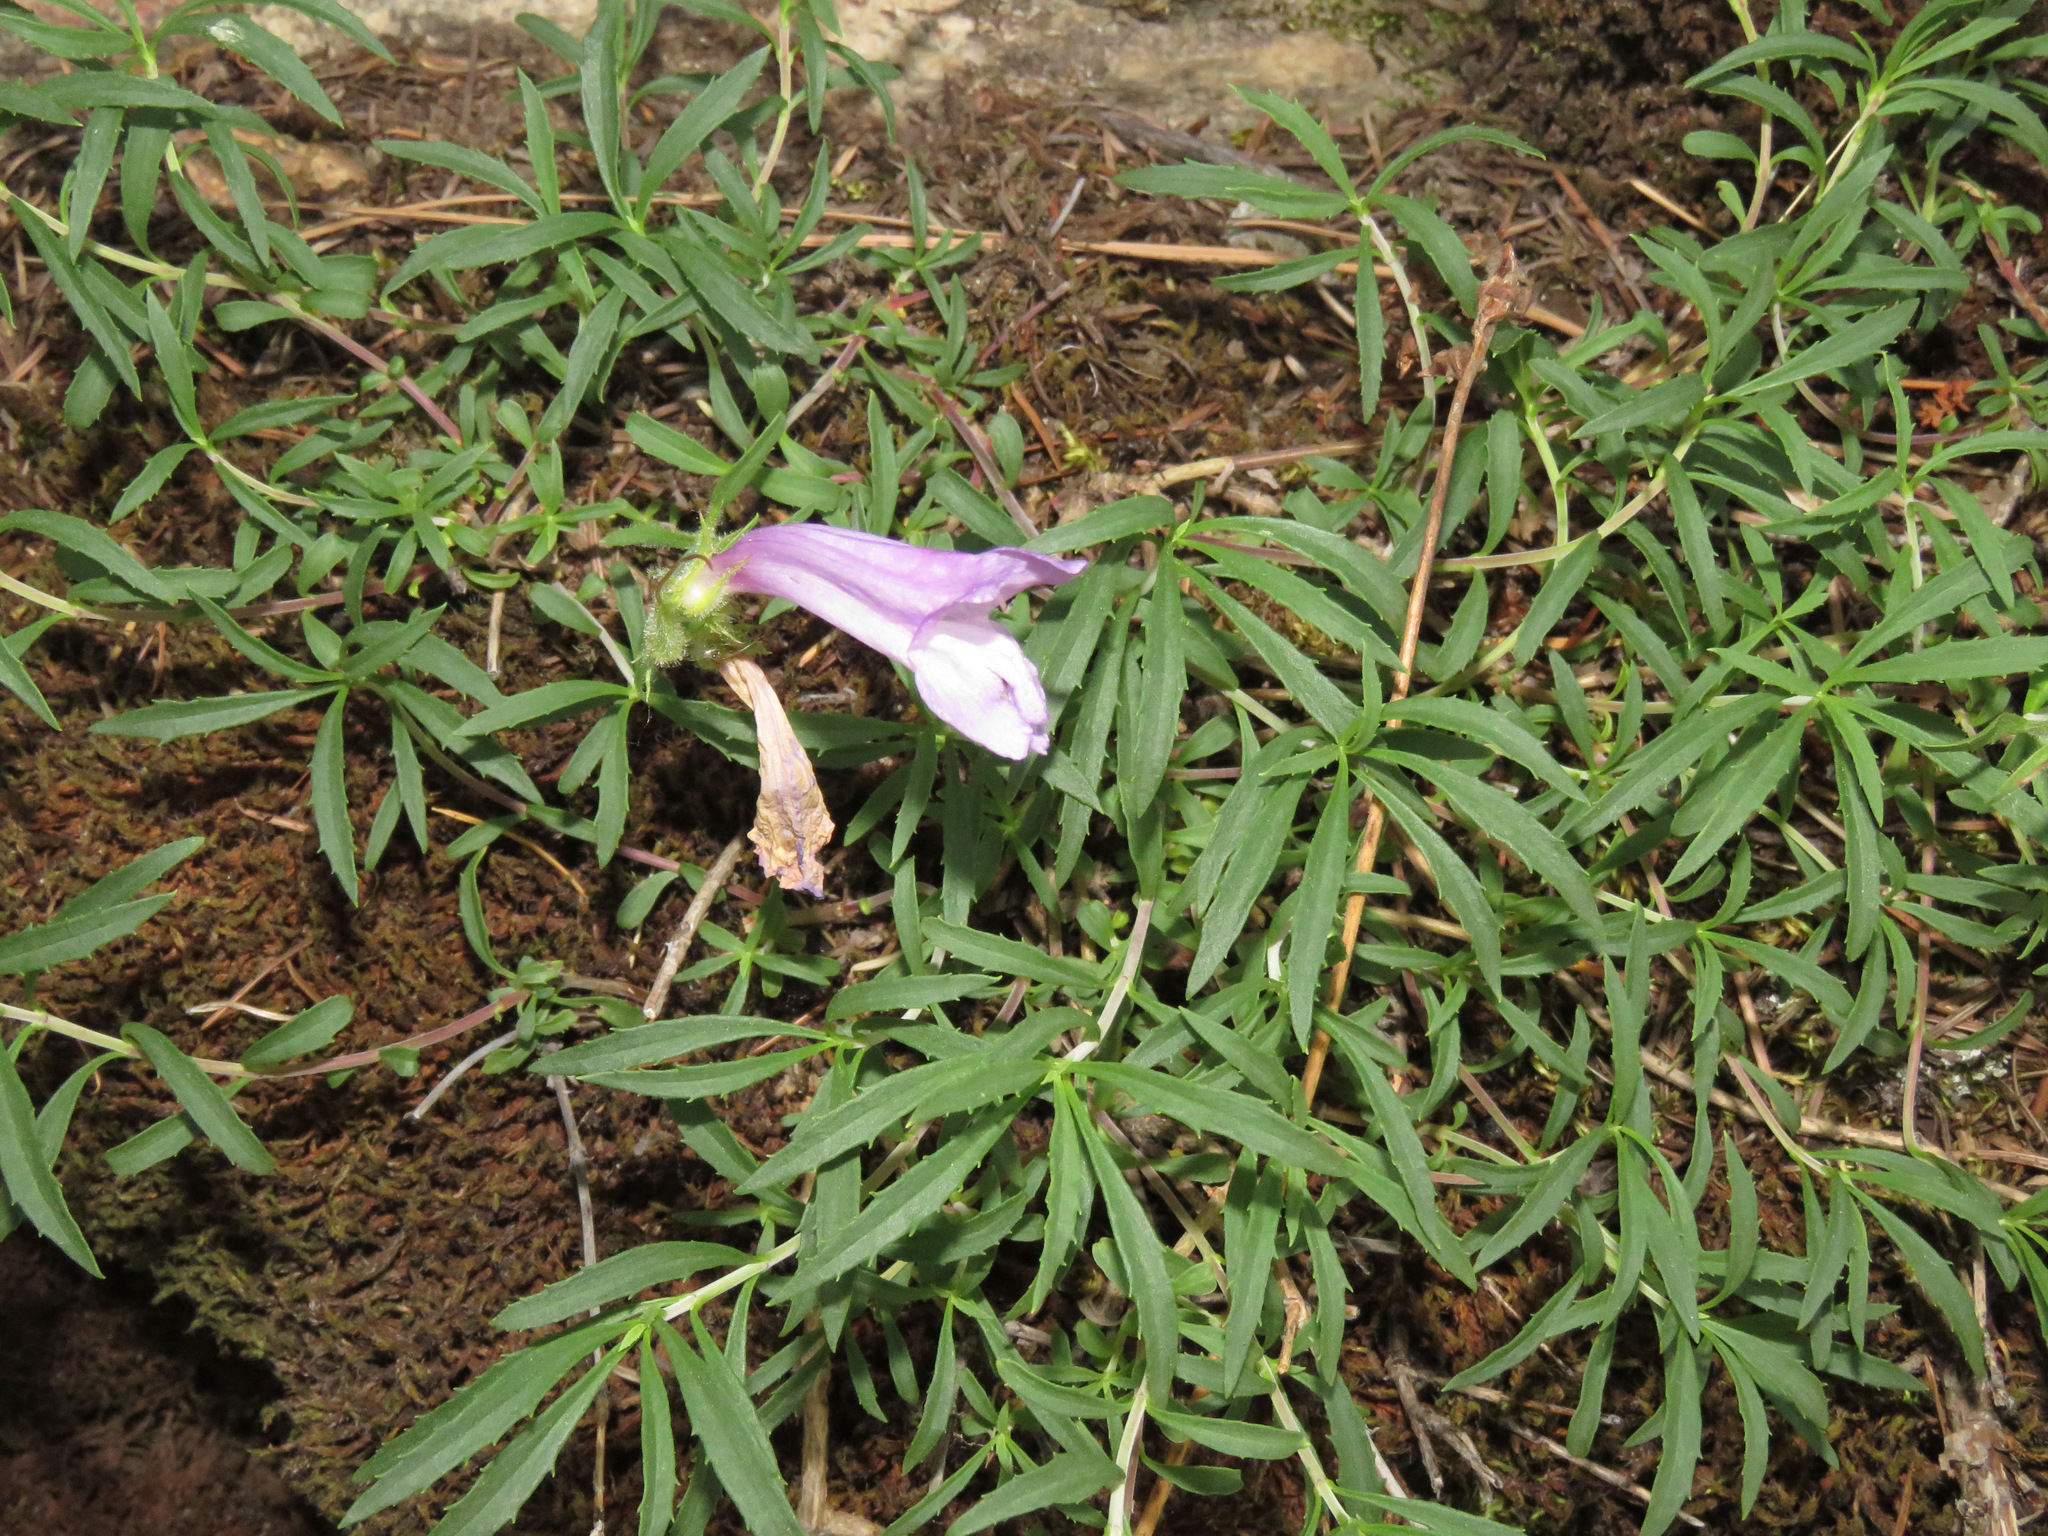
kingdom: Plantae
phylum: Tracheophyta
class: Magnoliopsida
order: Lamiales
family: Plantaginaceae
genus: Penstemon
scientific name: Penstemon fruticosus
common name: Bush penstemon
